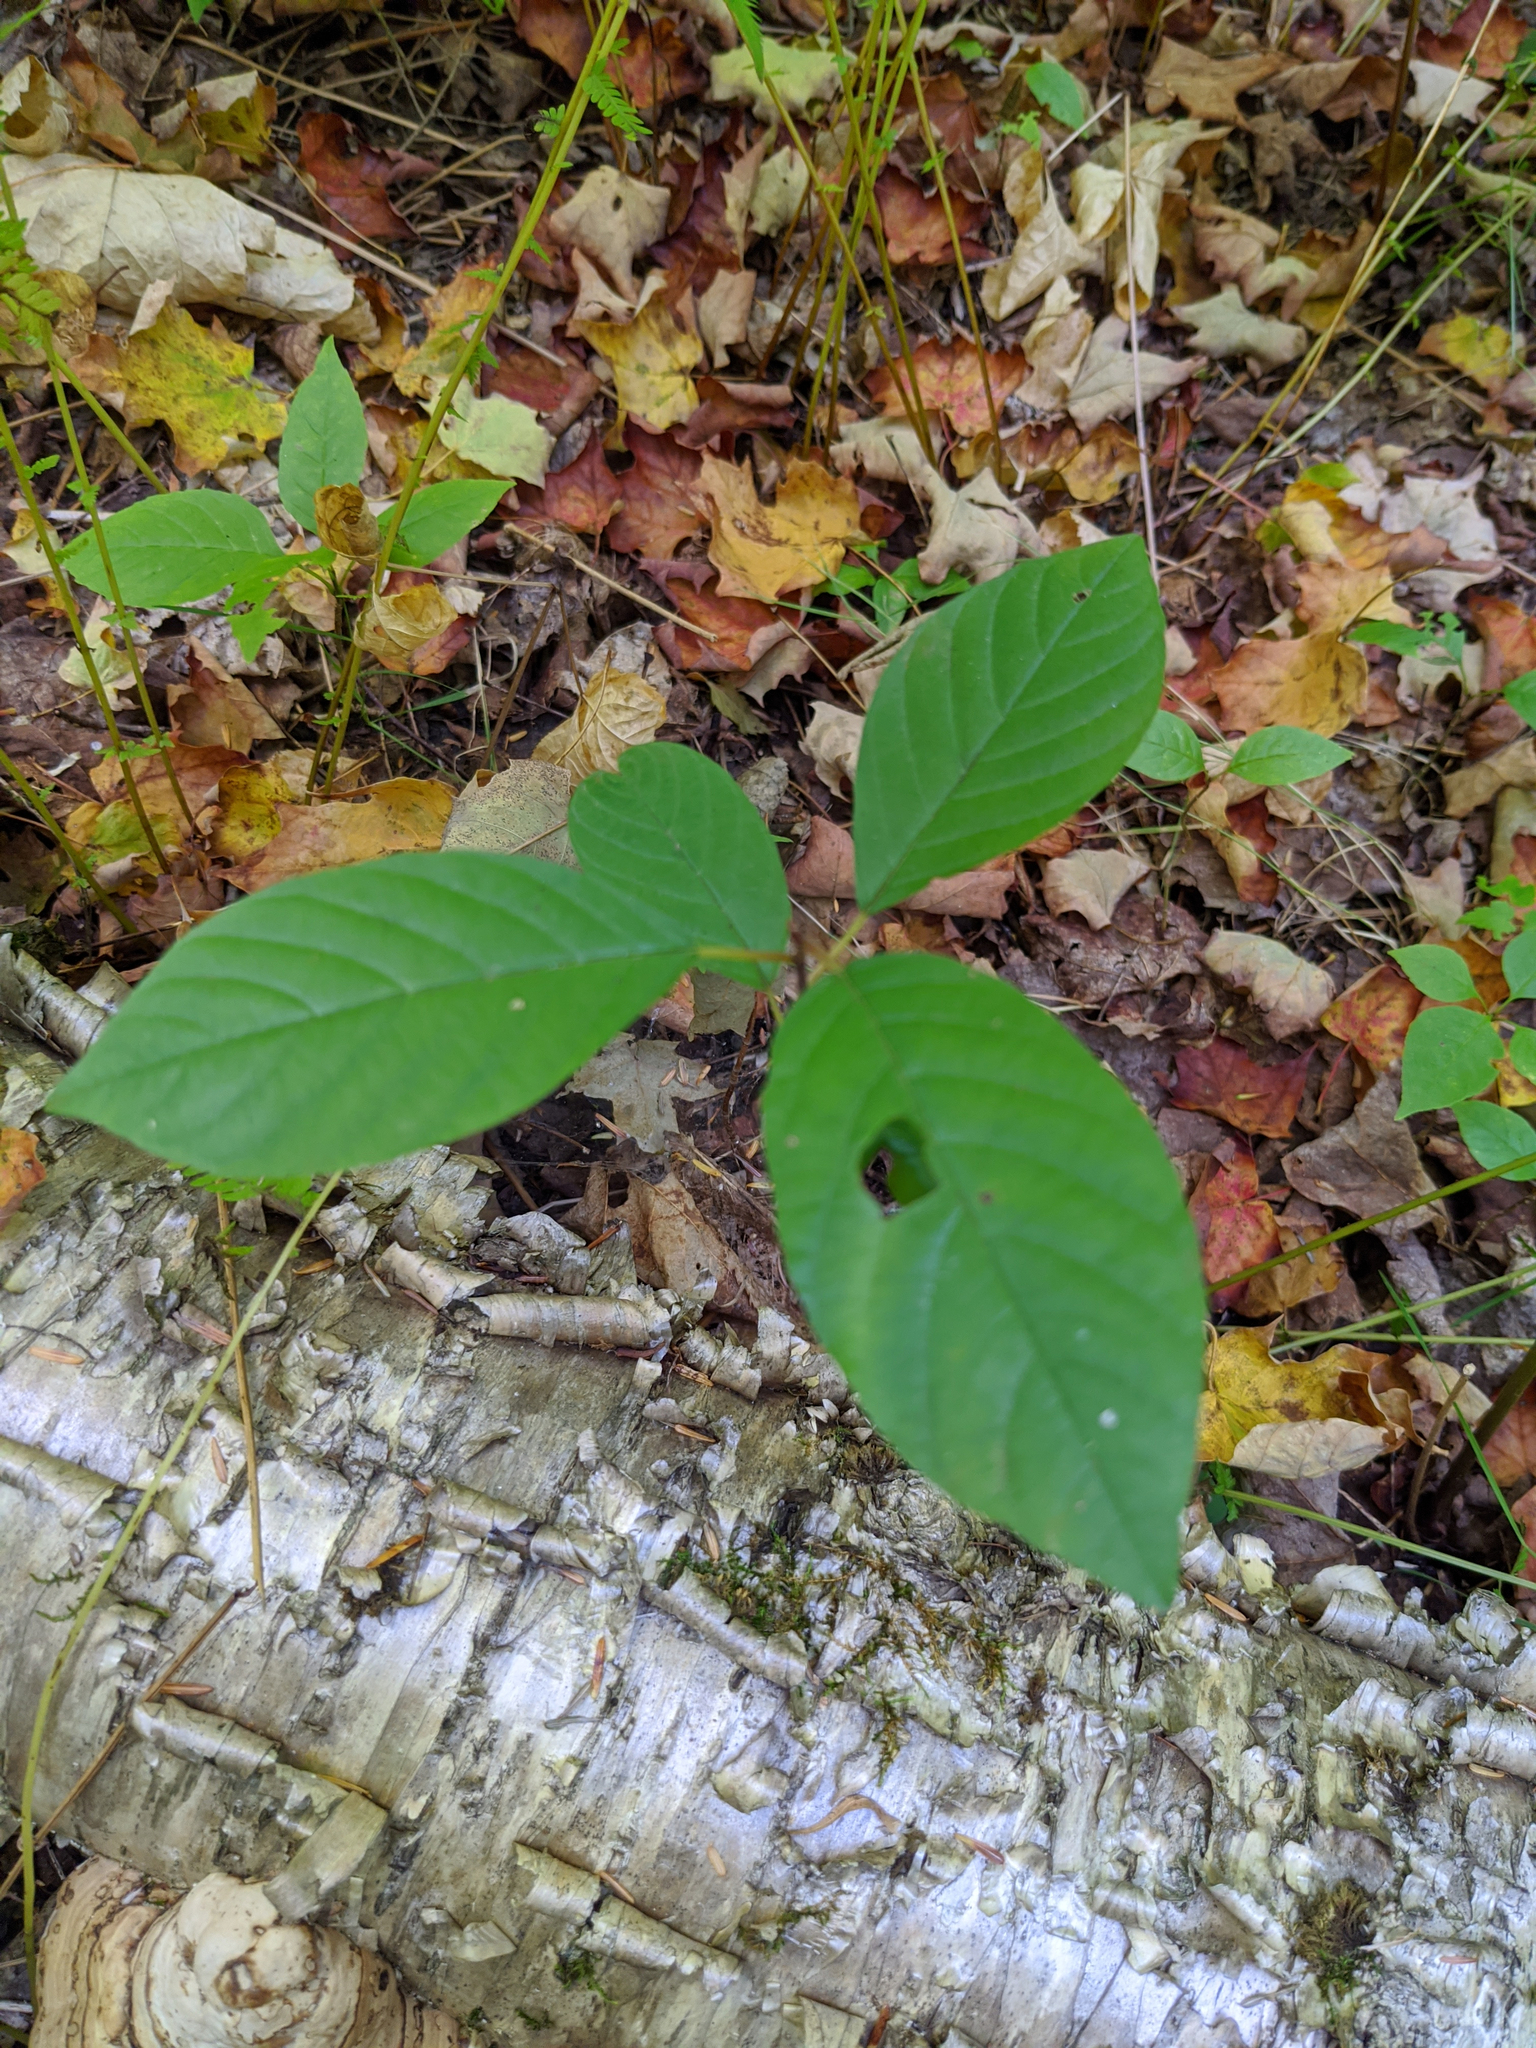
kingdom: Plantae
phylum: Tracheophyta
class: Magnoliopsida
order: Rosales
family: Rhamnaceae
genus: Frangula
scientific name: Frangula alnus
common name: Alder buckthorn
